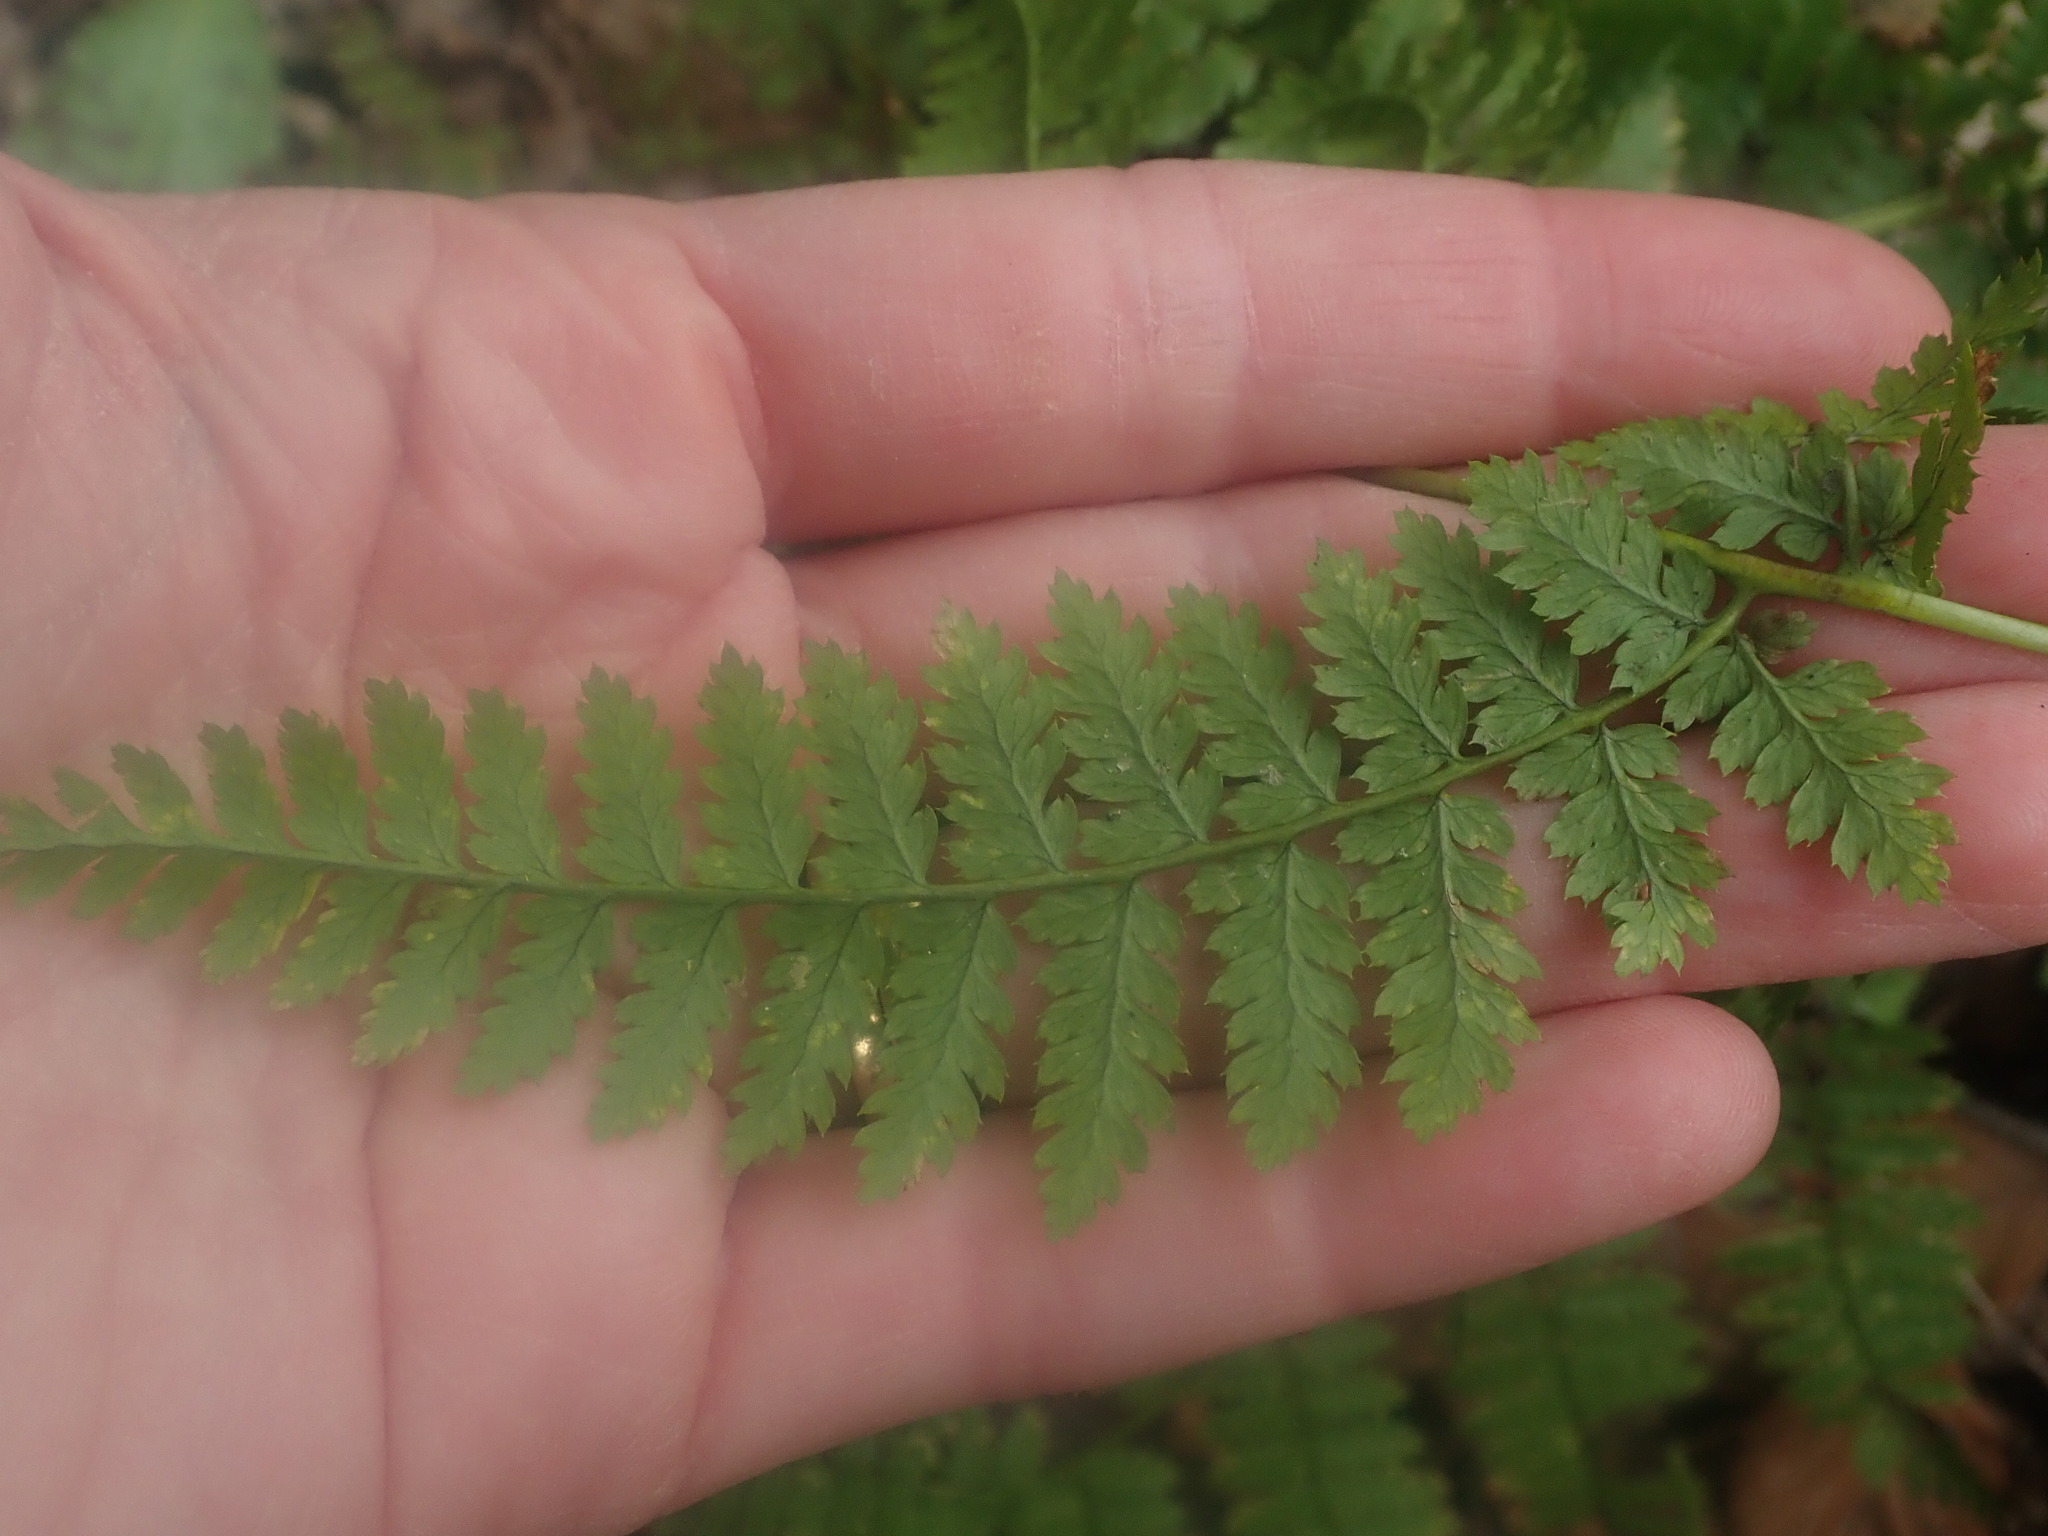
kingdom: Plantae
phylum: Tracheophyta
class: Polypodiopsida
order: Polypodiales
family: Dryopteridaceae
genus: Dryopteris
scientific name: Dryopteris intermedia
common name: Evergreen wood fern
